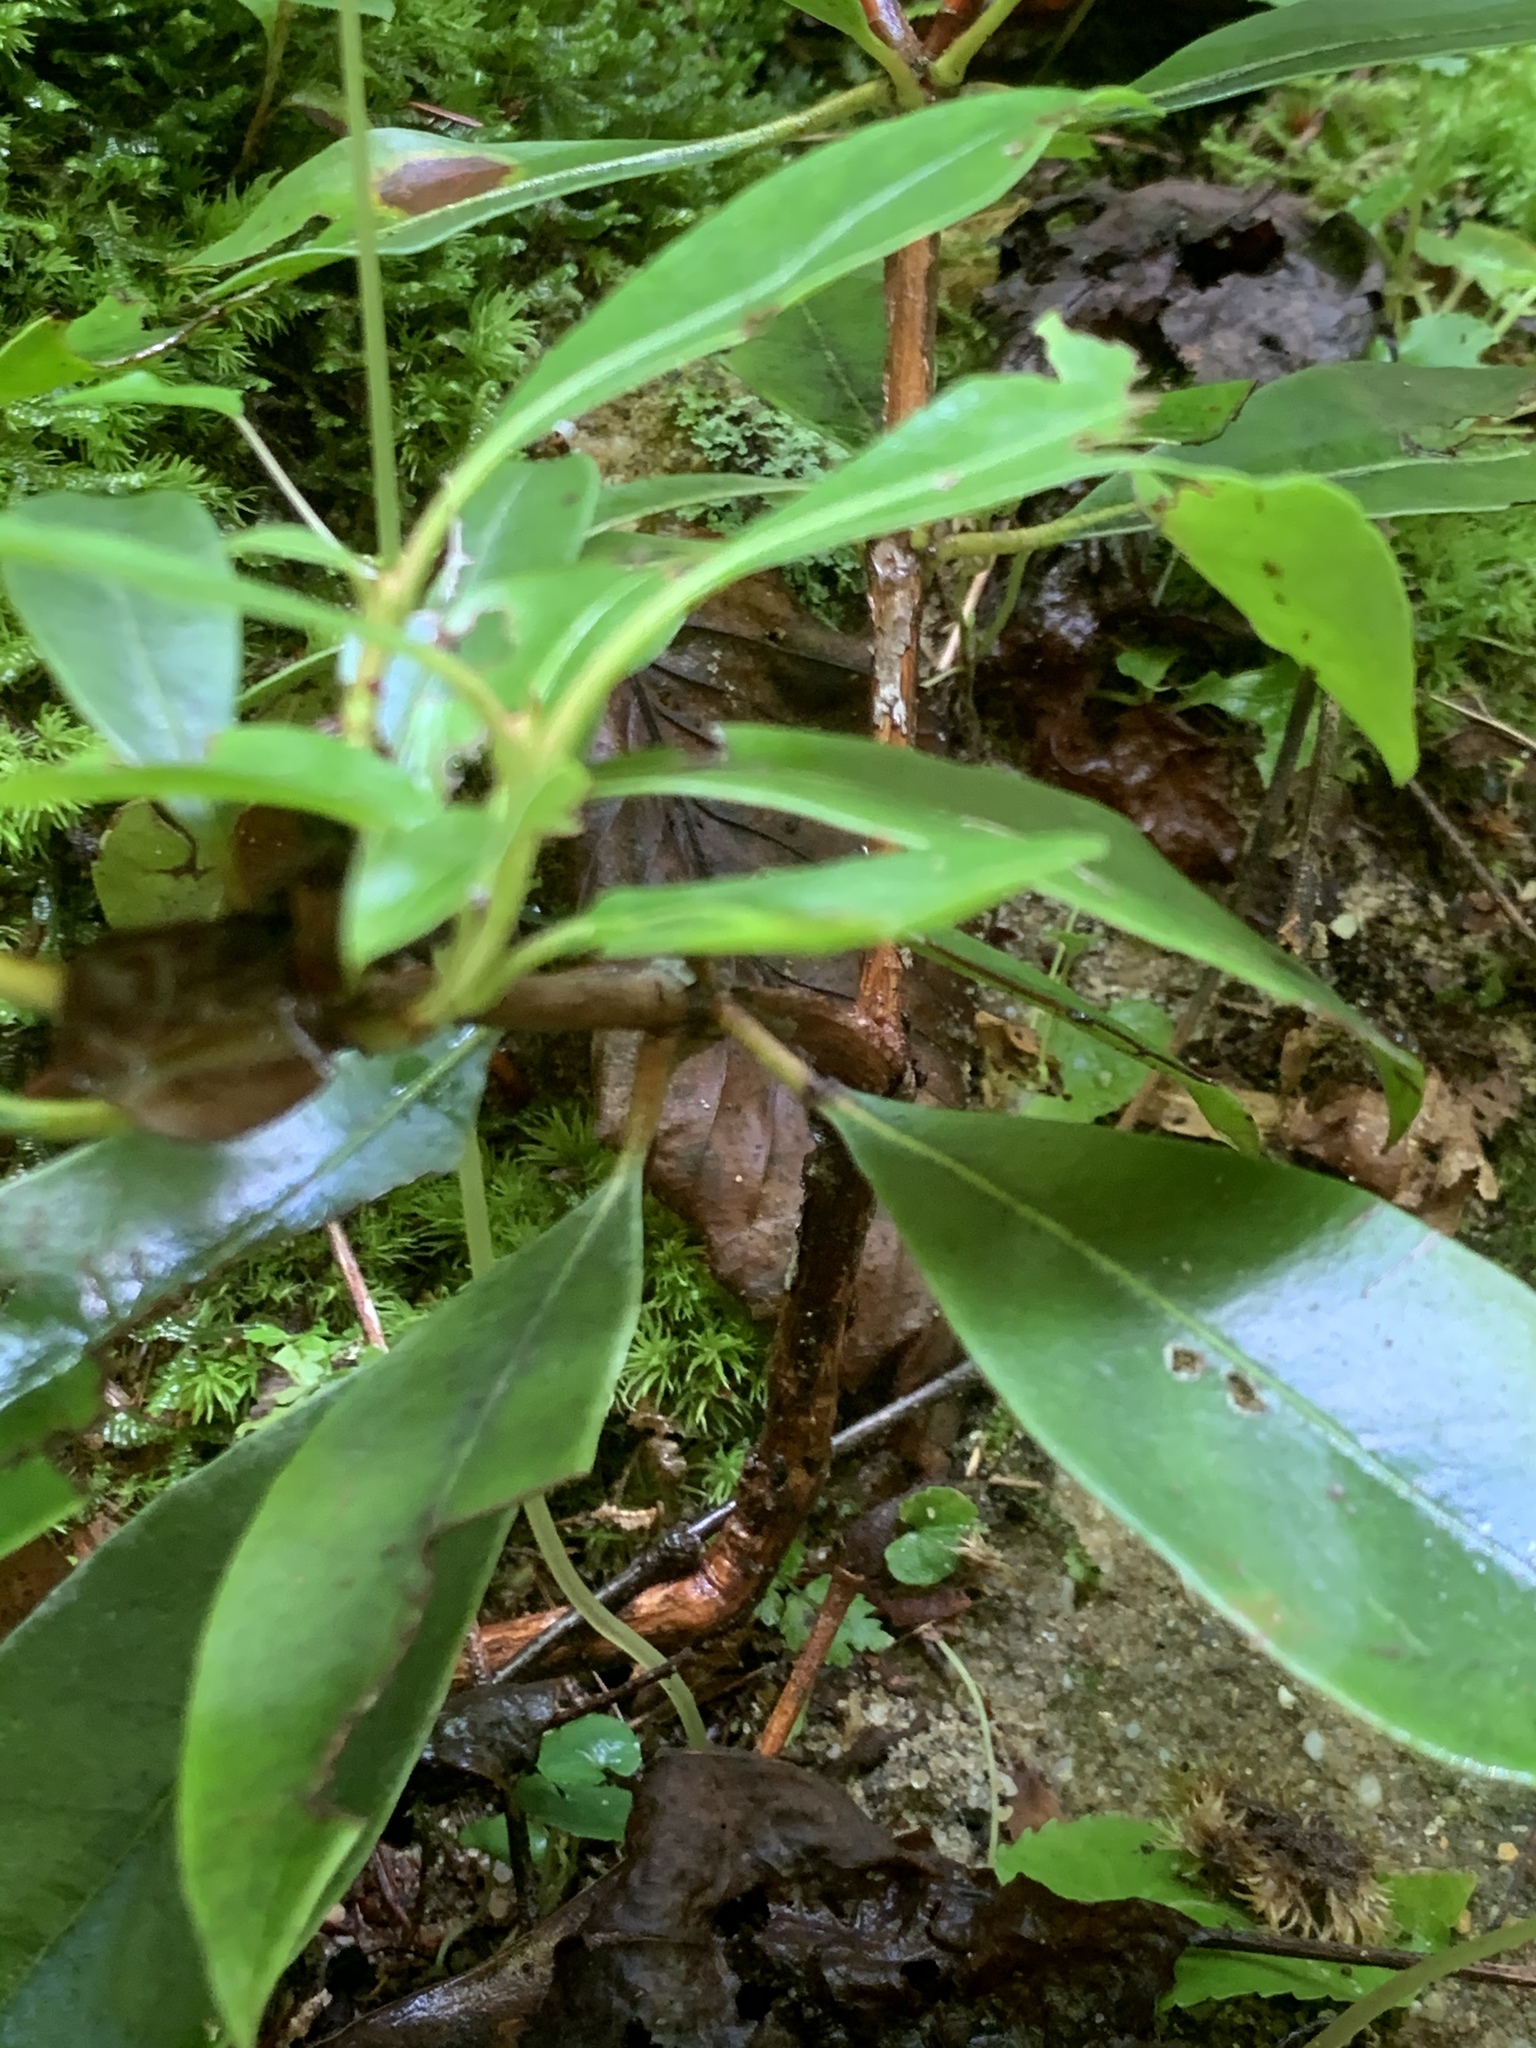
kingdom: Plantae
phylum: Tracheophyta
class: Magnoliopsida
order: Ericales
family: Ericaceae
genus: Kalmia
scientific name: Kalmia latifolia
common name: Mountain-laurel
